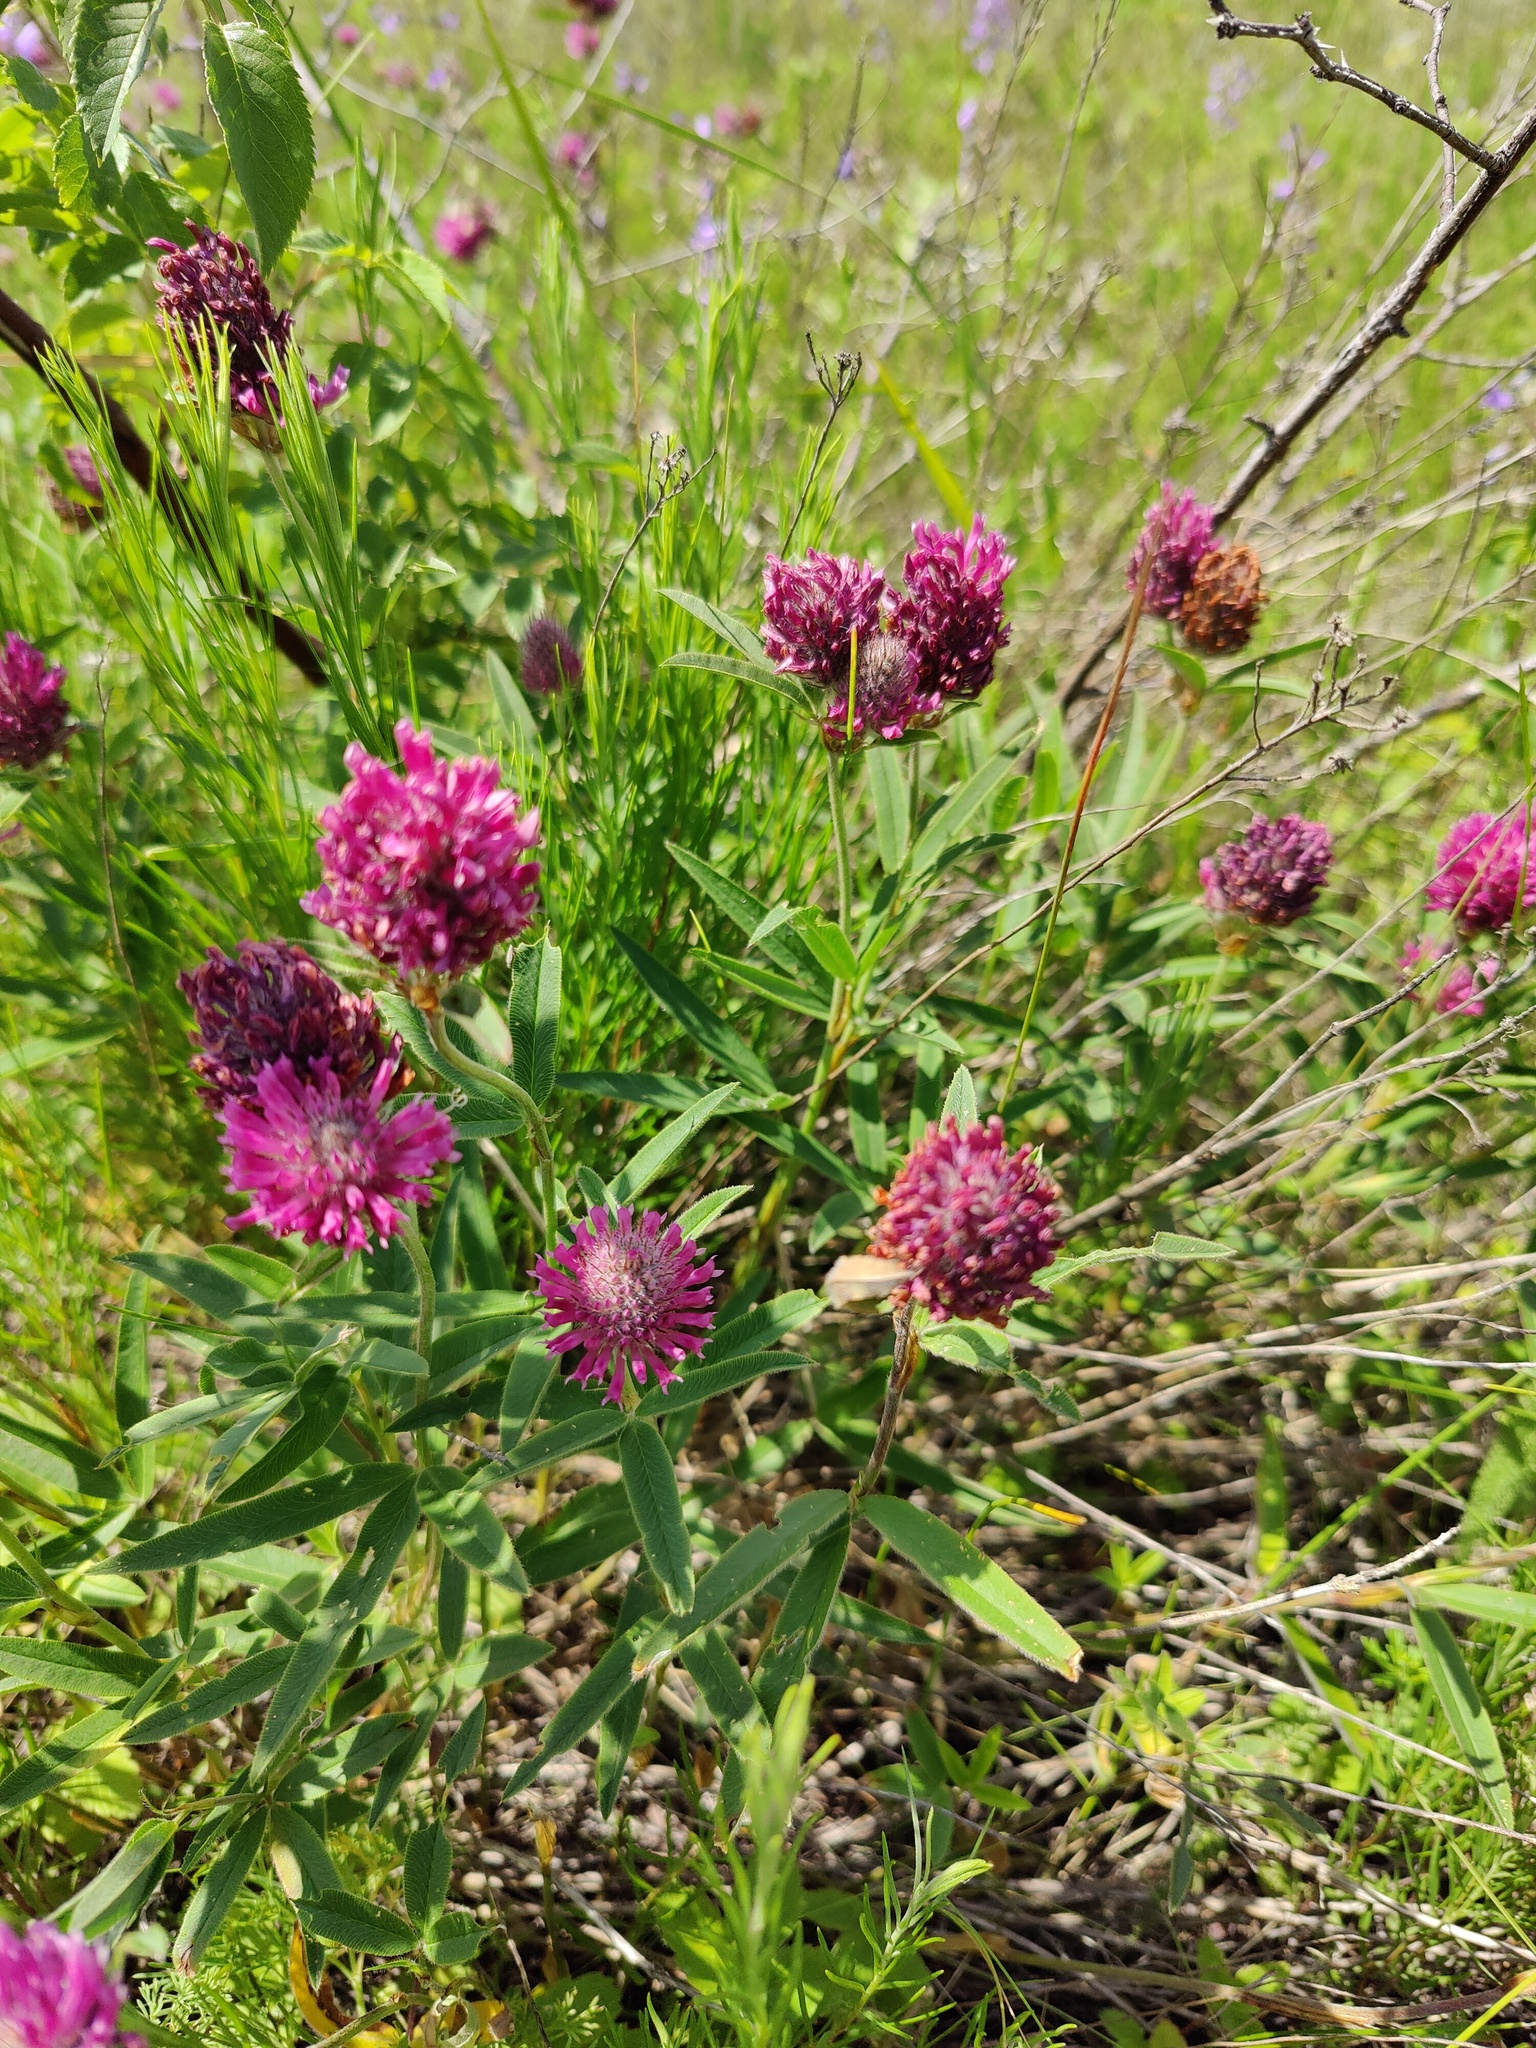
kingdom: Plantae
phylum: Tracheophyta
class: Magnoliopsida
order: Fabales
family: Fabaceae
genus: Trifolium
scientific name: Trifolium alpestre
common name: Owl-head clover
